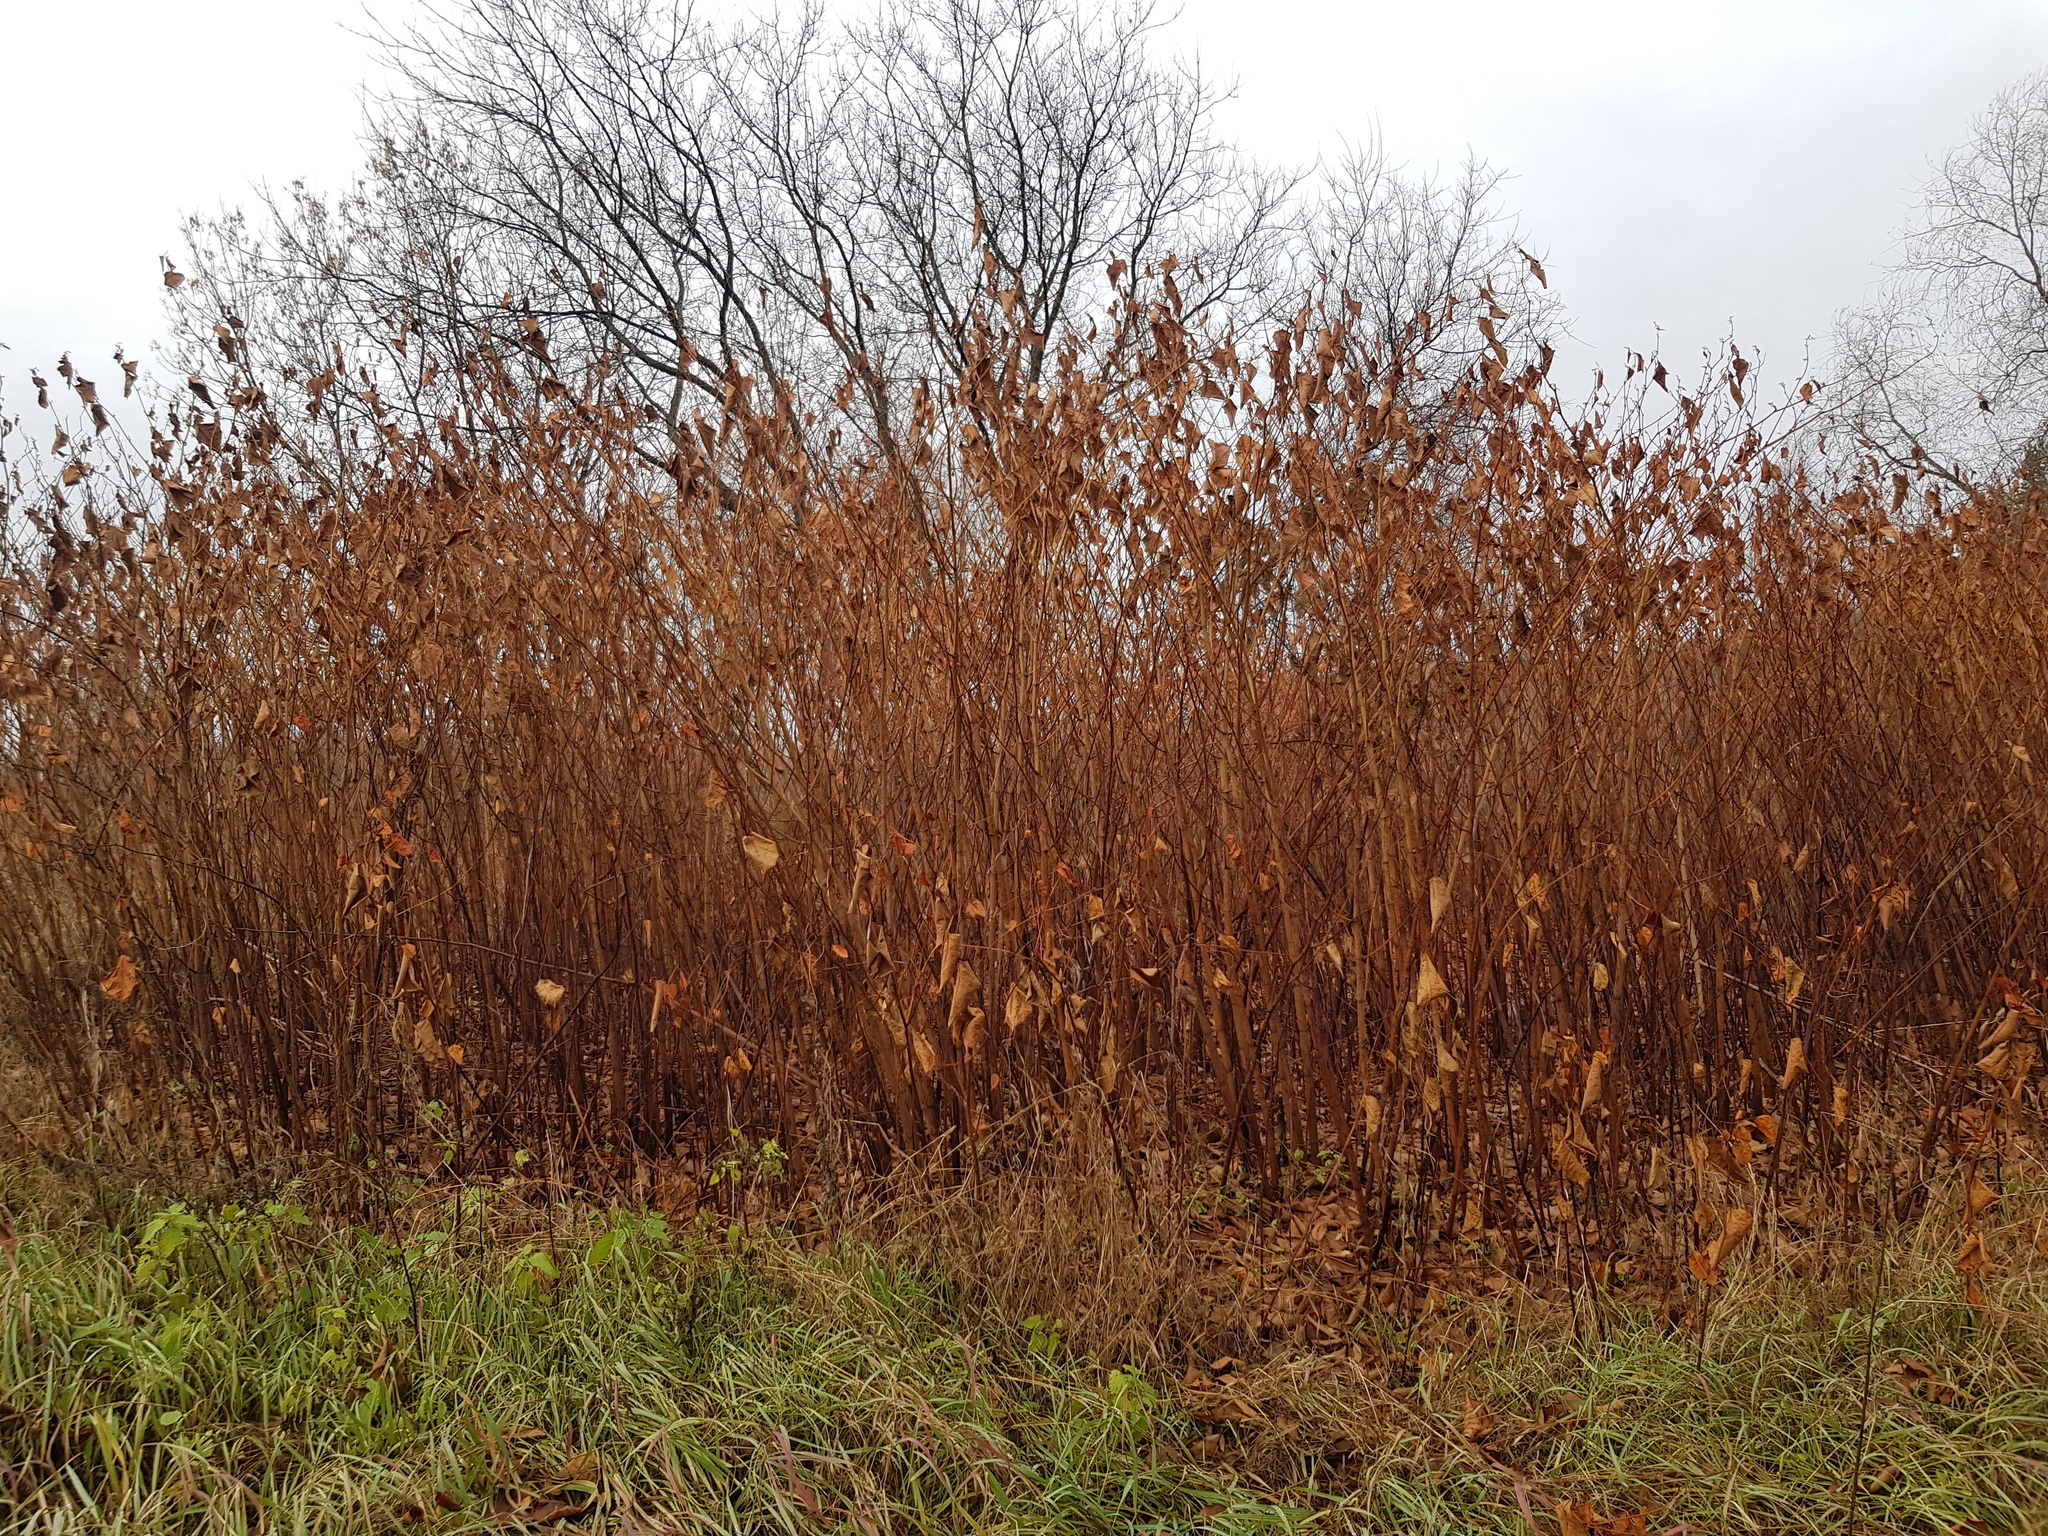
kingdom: Plantae
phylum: Tracheophyta
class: Magnoliopsida
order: Caryophyllales
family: Polygonaceae
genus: Reynoutria
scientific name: Reynoutria bohemica
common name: Bohemian knotweed
